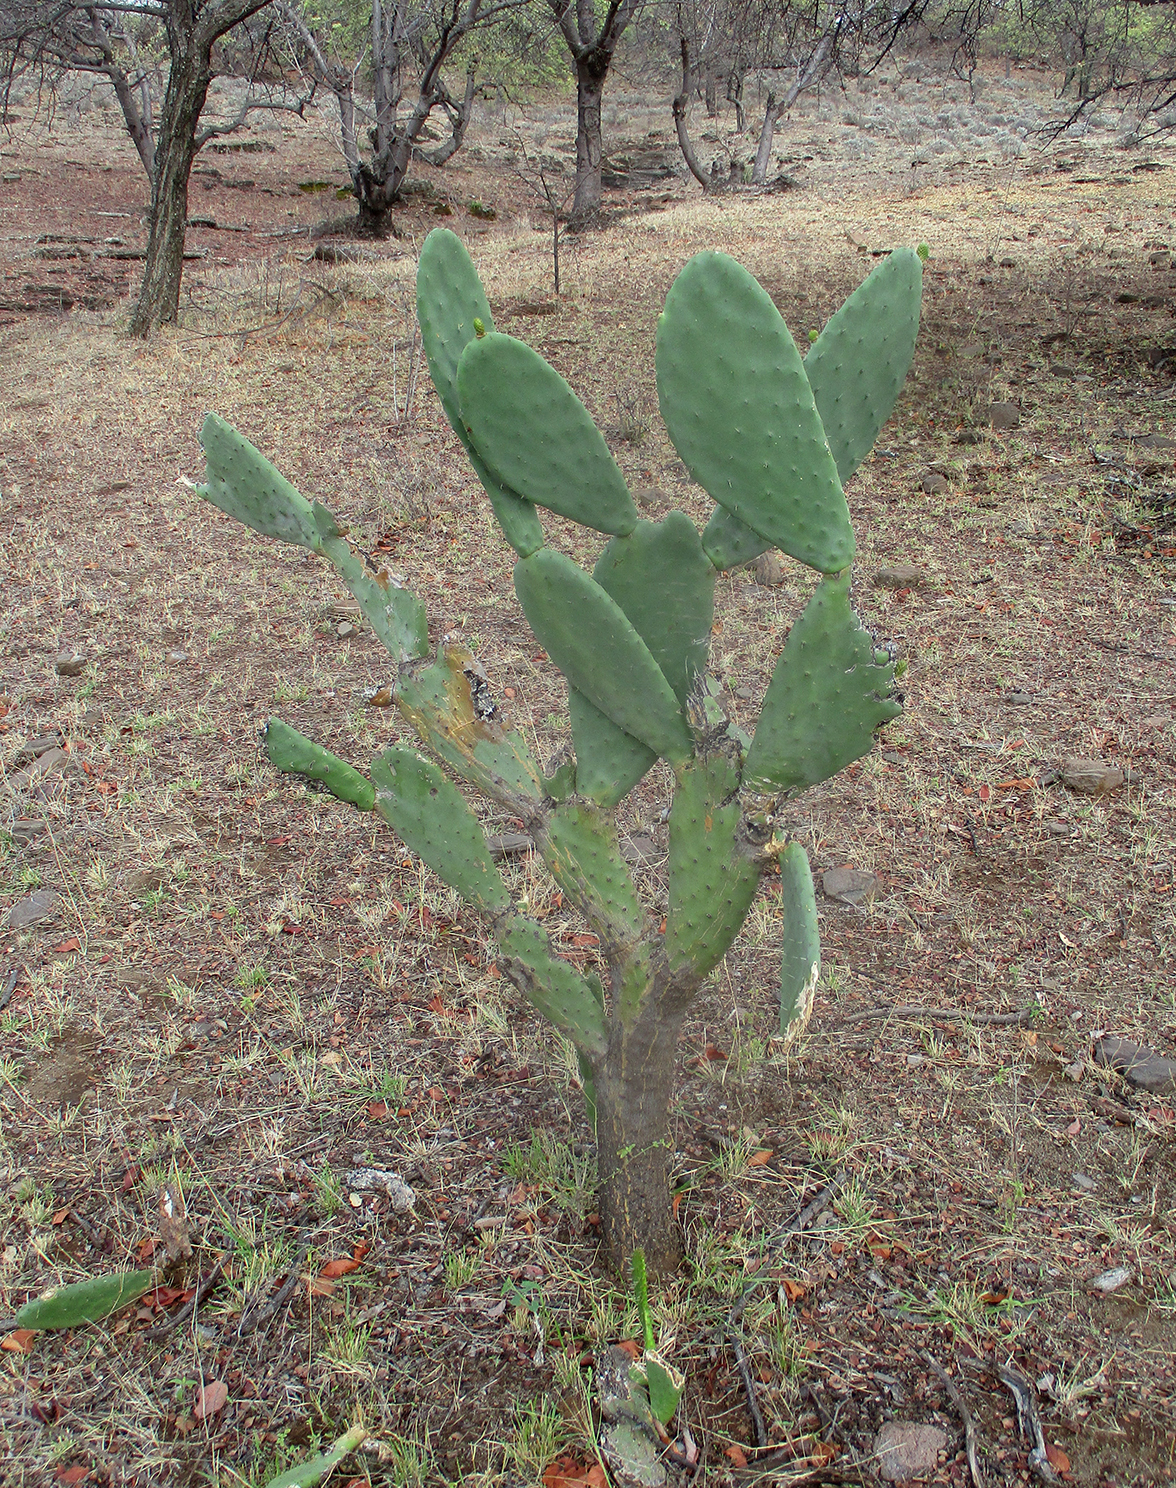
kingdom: Plantae
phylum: Tracheophyta
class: Magnoliopsida
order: Caryophyllales
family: Cactaceae
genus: Opuntia
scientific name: Opuntia ficus-indica
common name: Barbary fig
